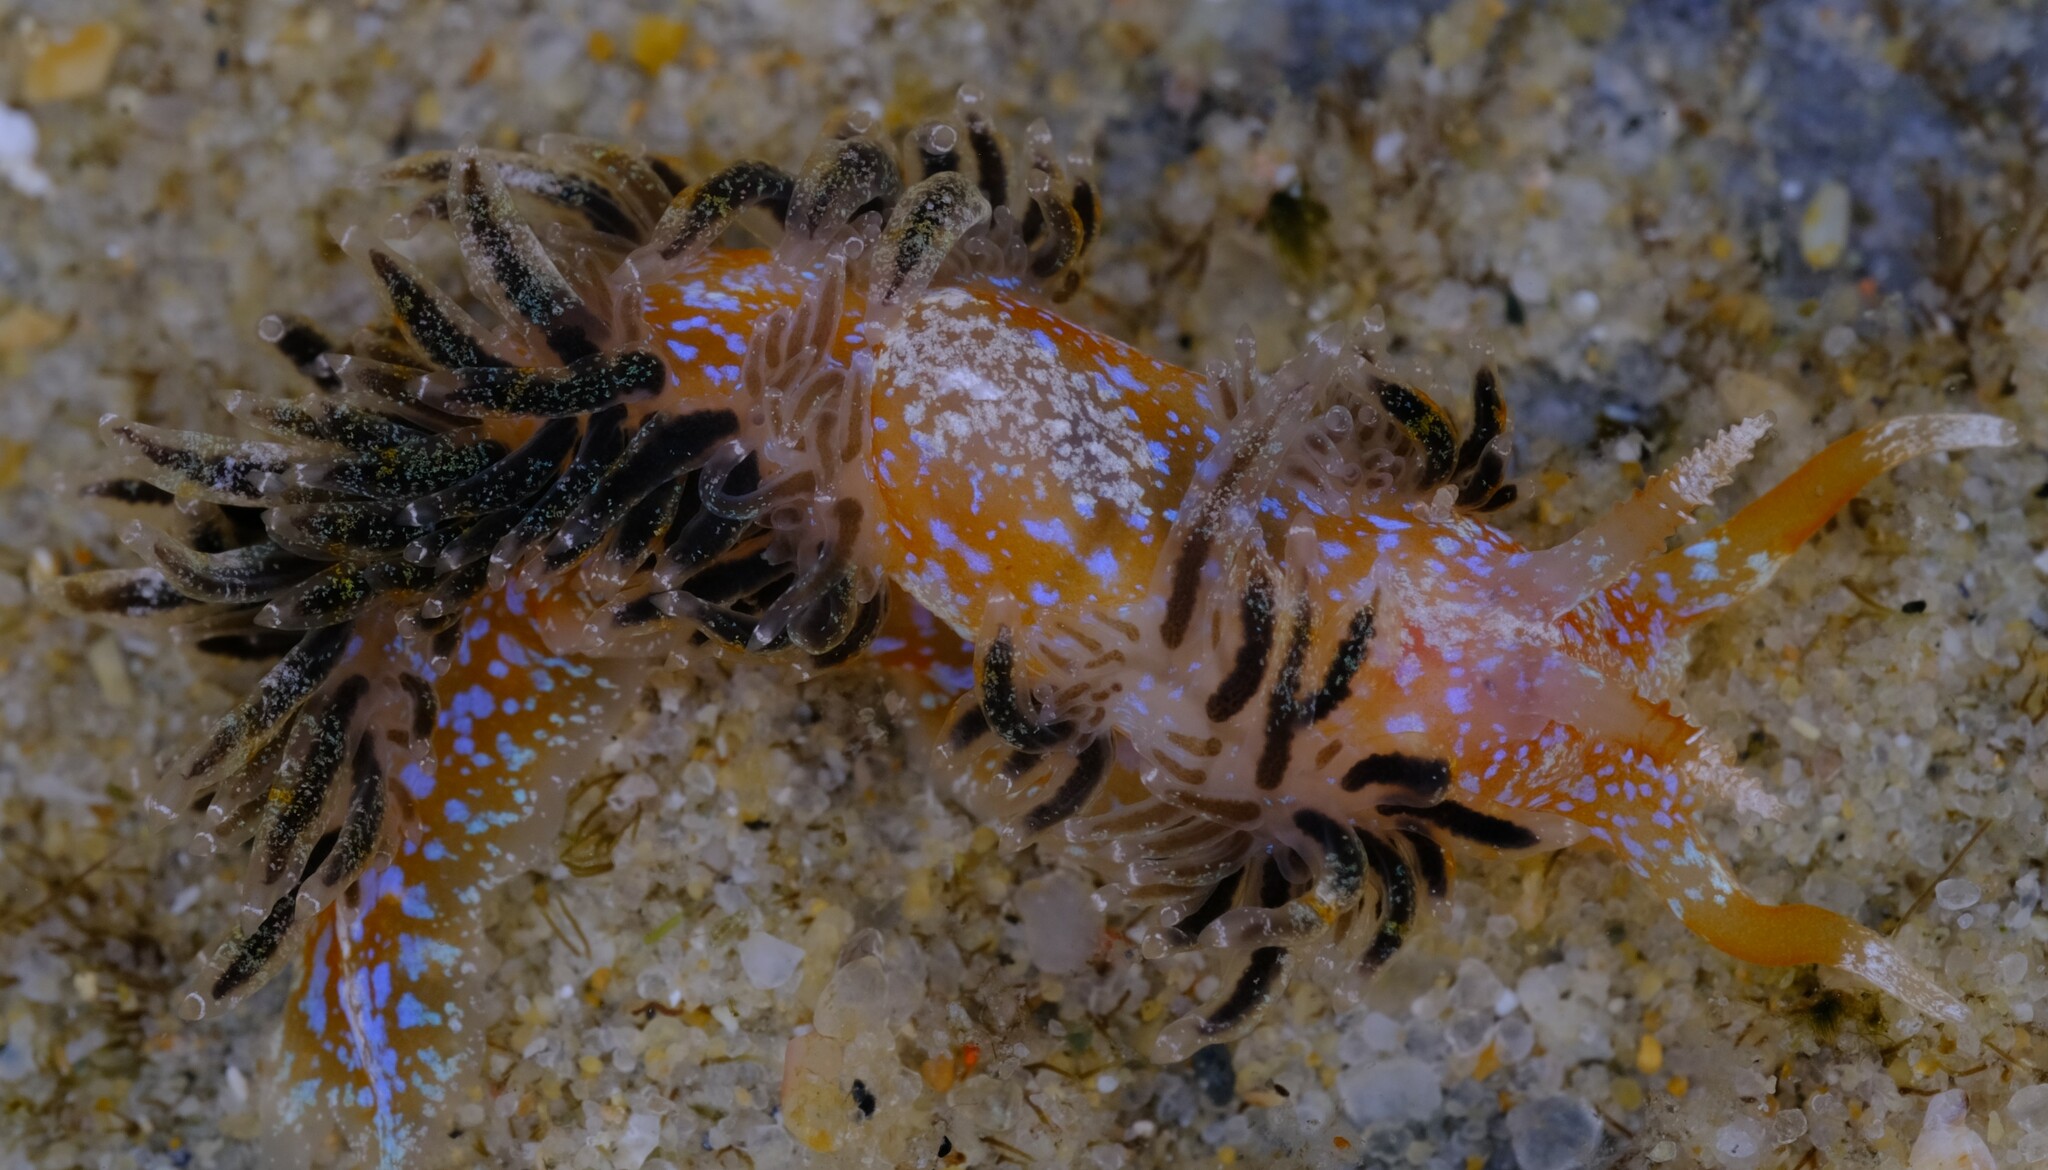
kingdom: Animalia
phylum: Mollusca
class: Gastropoda
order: Nudibranchia
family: Facelinidae
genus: Austraeolis
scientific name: Austraeolis ornata
